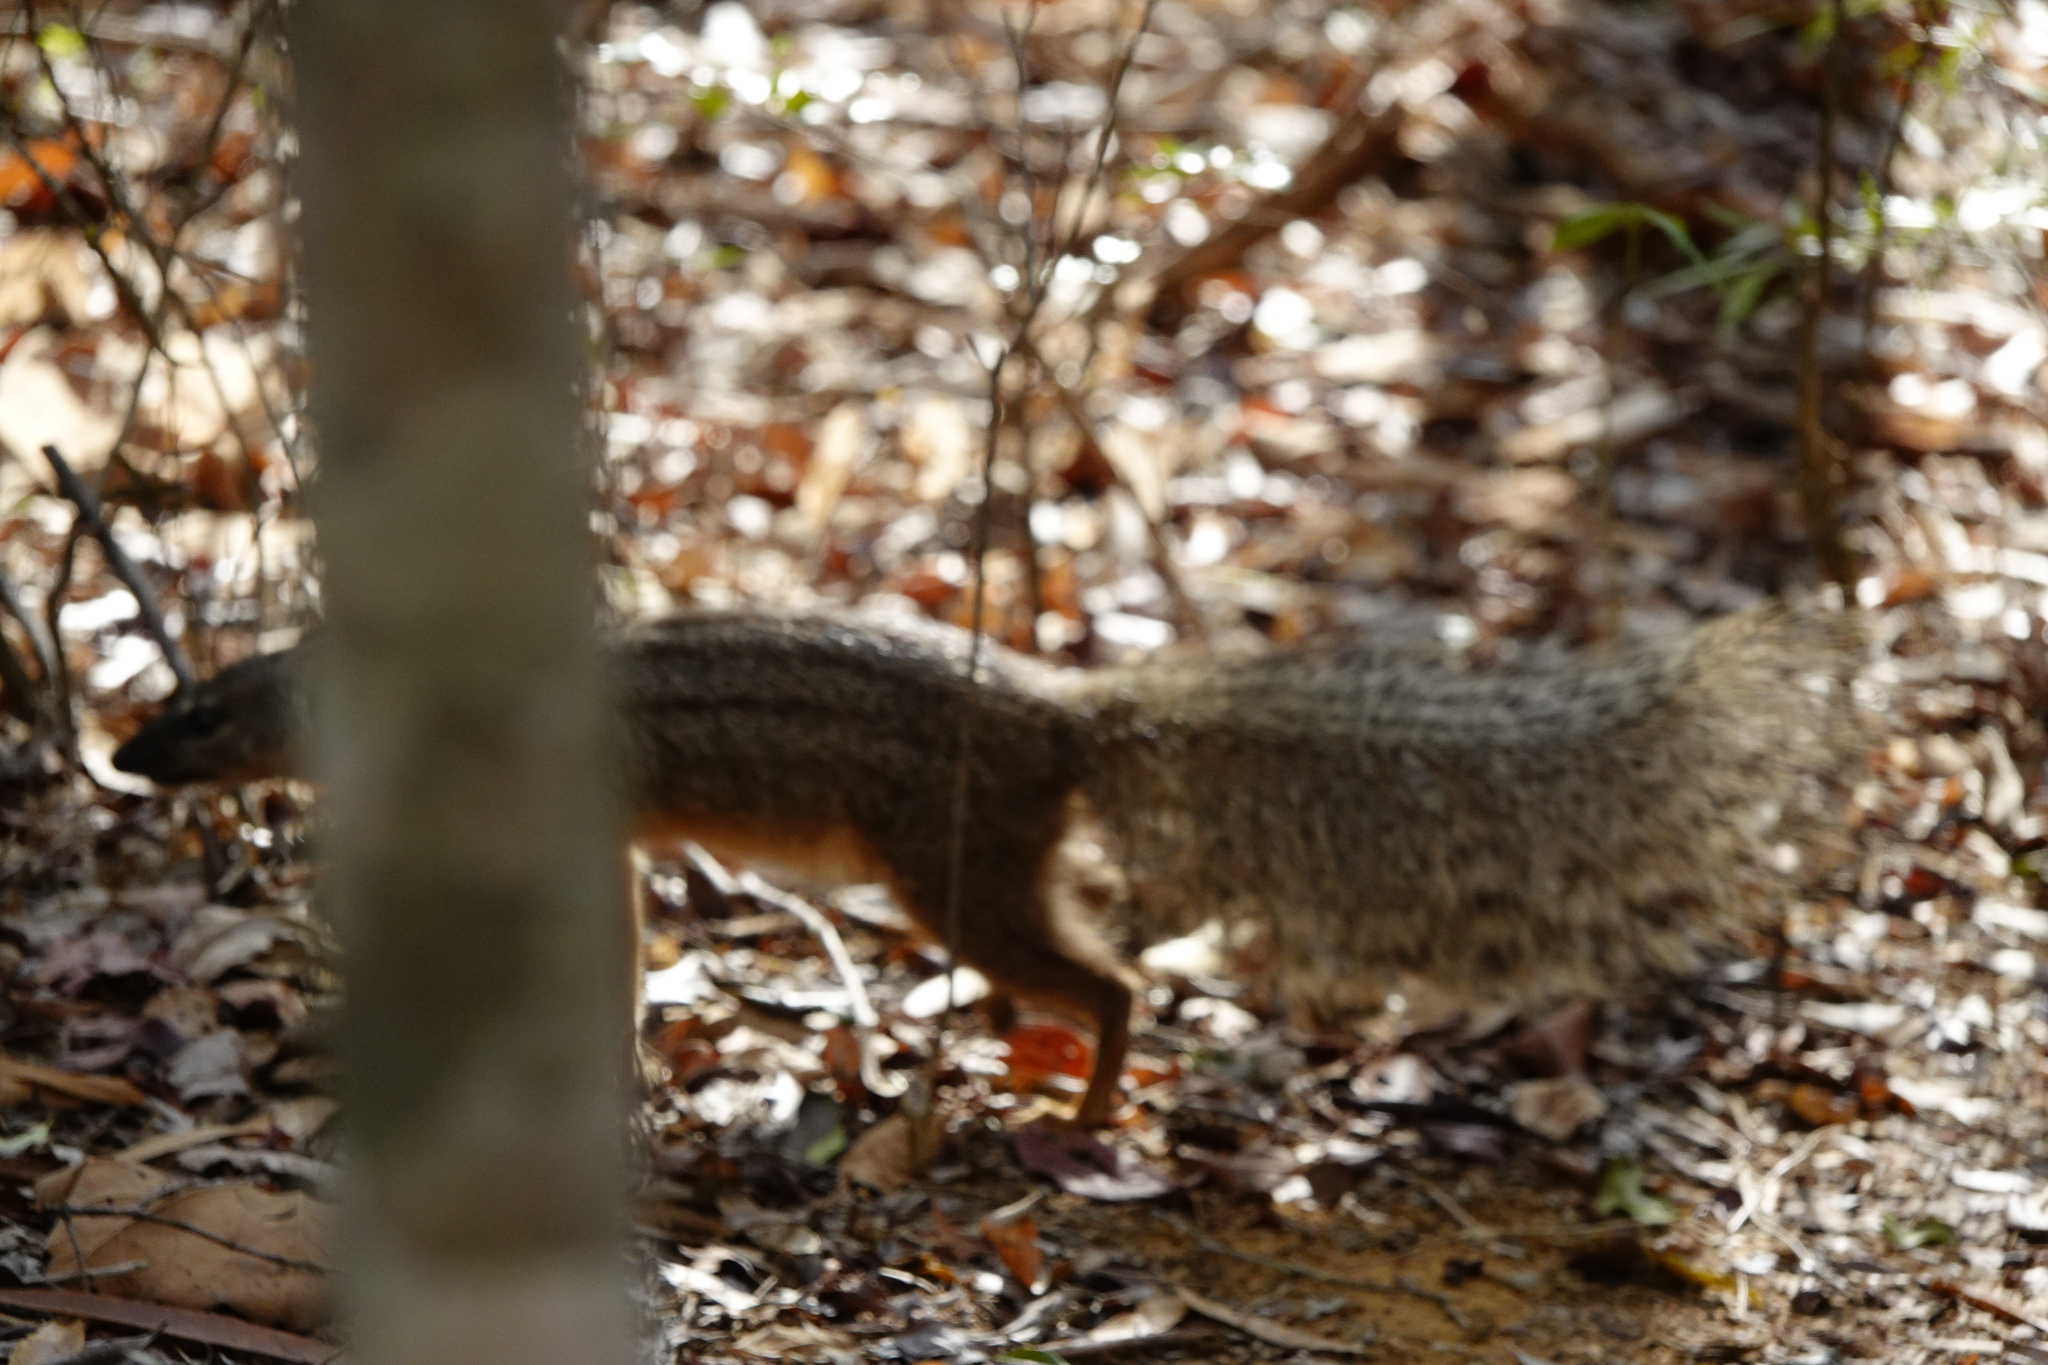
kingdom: Animalia
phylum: Chordata
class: Mammalia
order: Carnivora
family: Eupleridae
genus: Mungotictis
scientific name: Mungotictis decemlineata
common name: Narrow-striped mongoose
